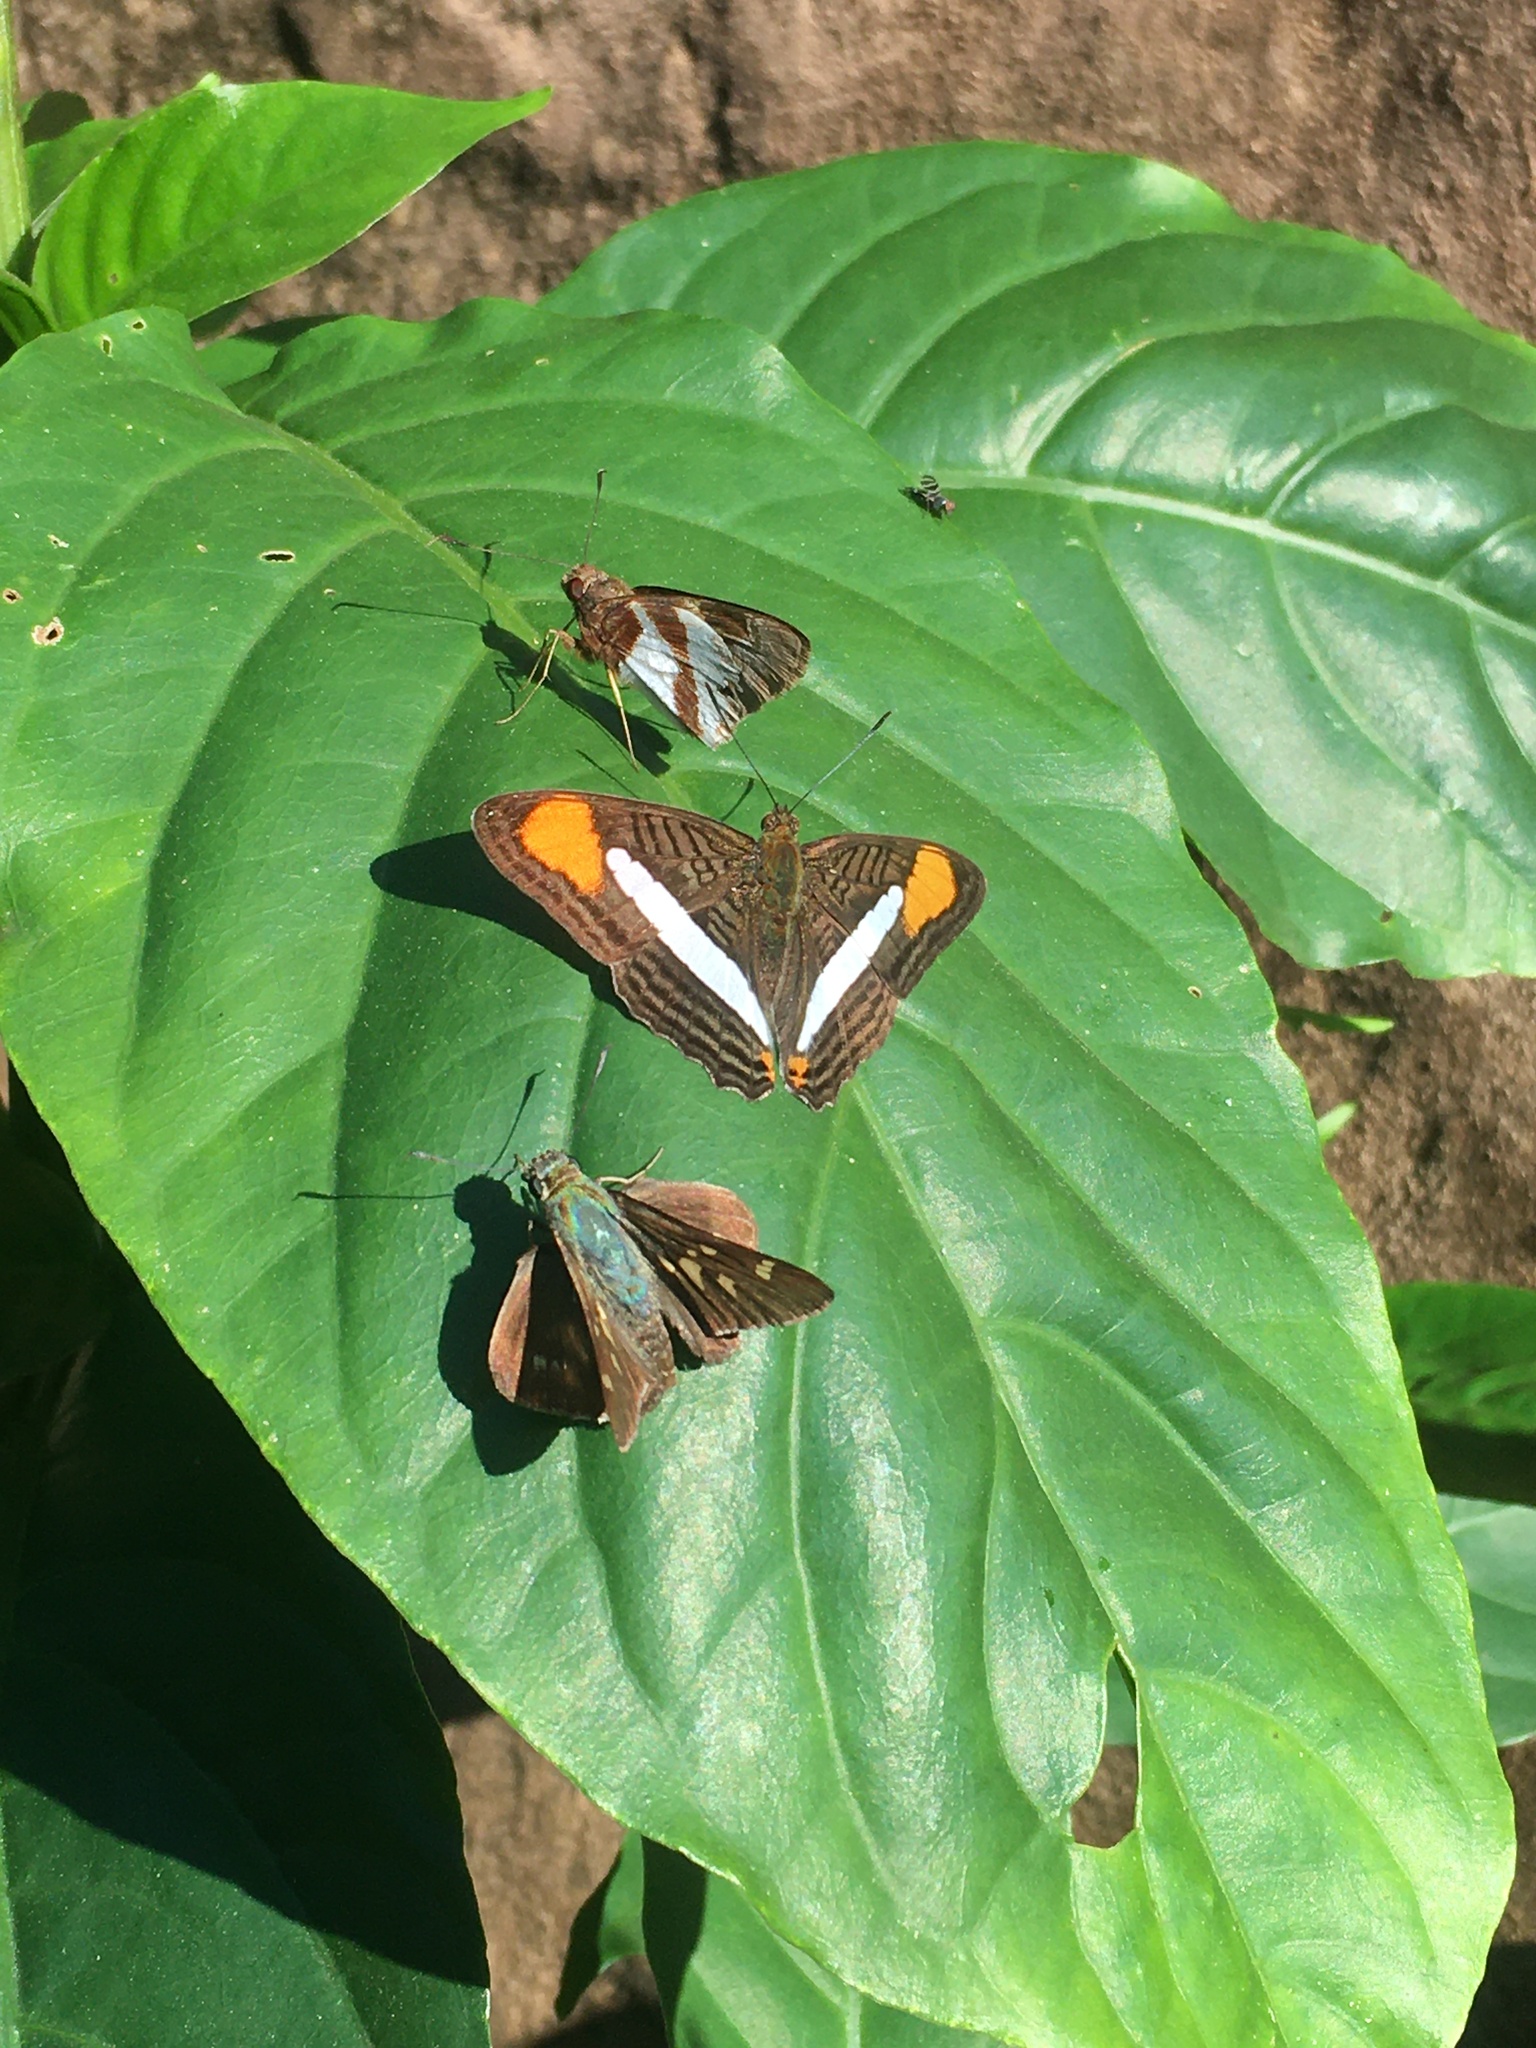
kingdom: Animalia
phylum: Arthropoda
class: Insecta
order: Lepidoptera
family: Hesperiidae
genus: Lycas
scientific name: Lycas argentea
